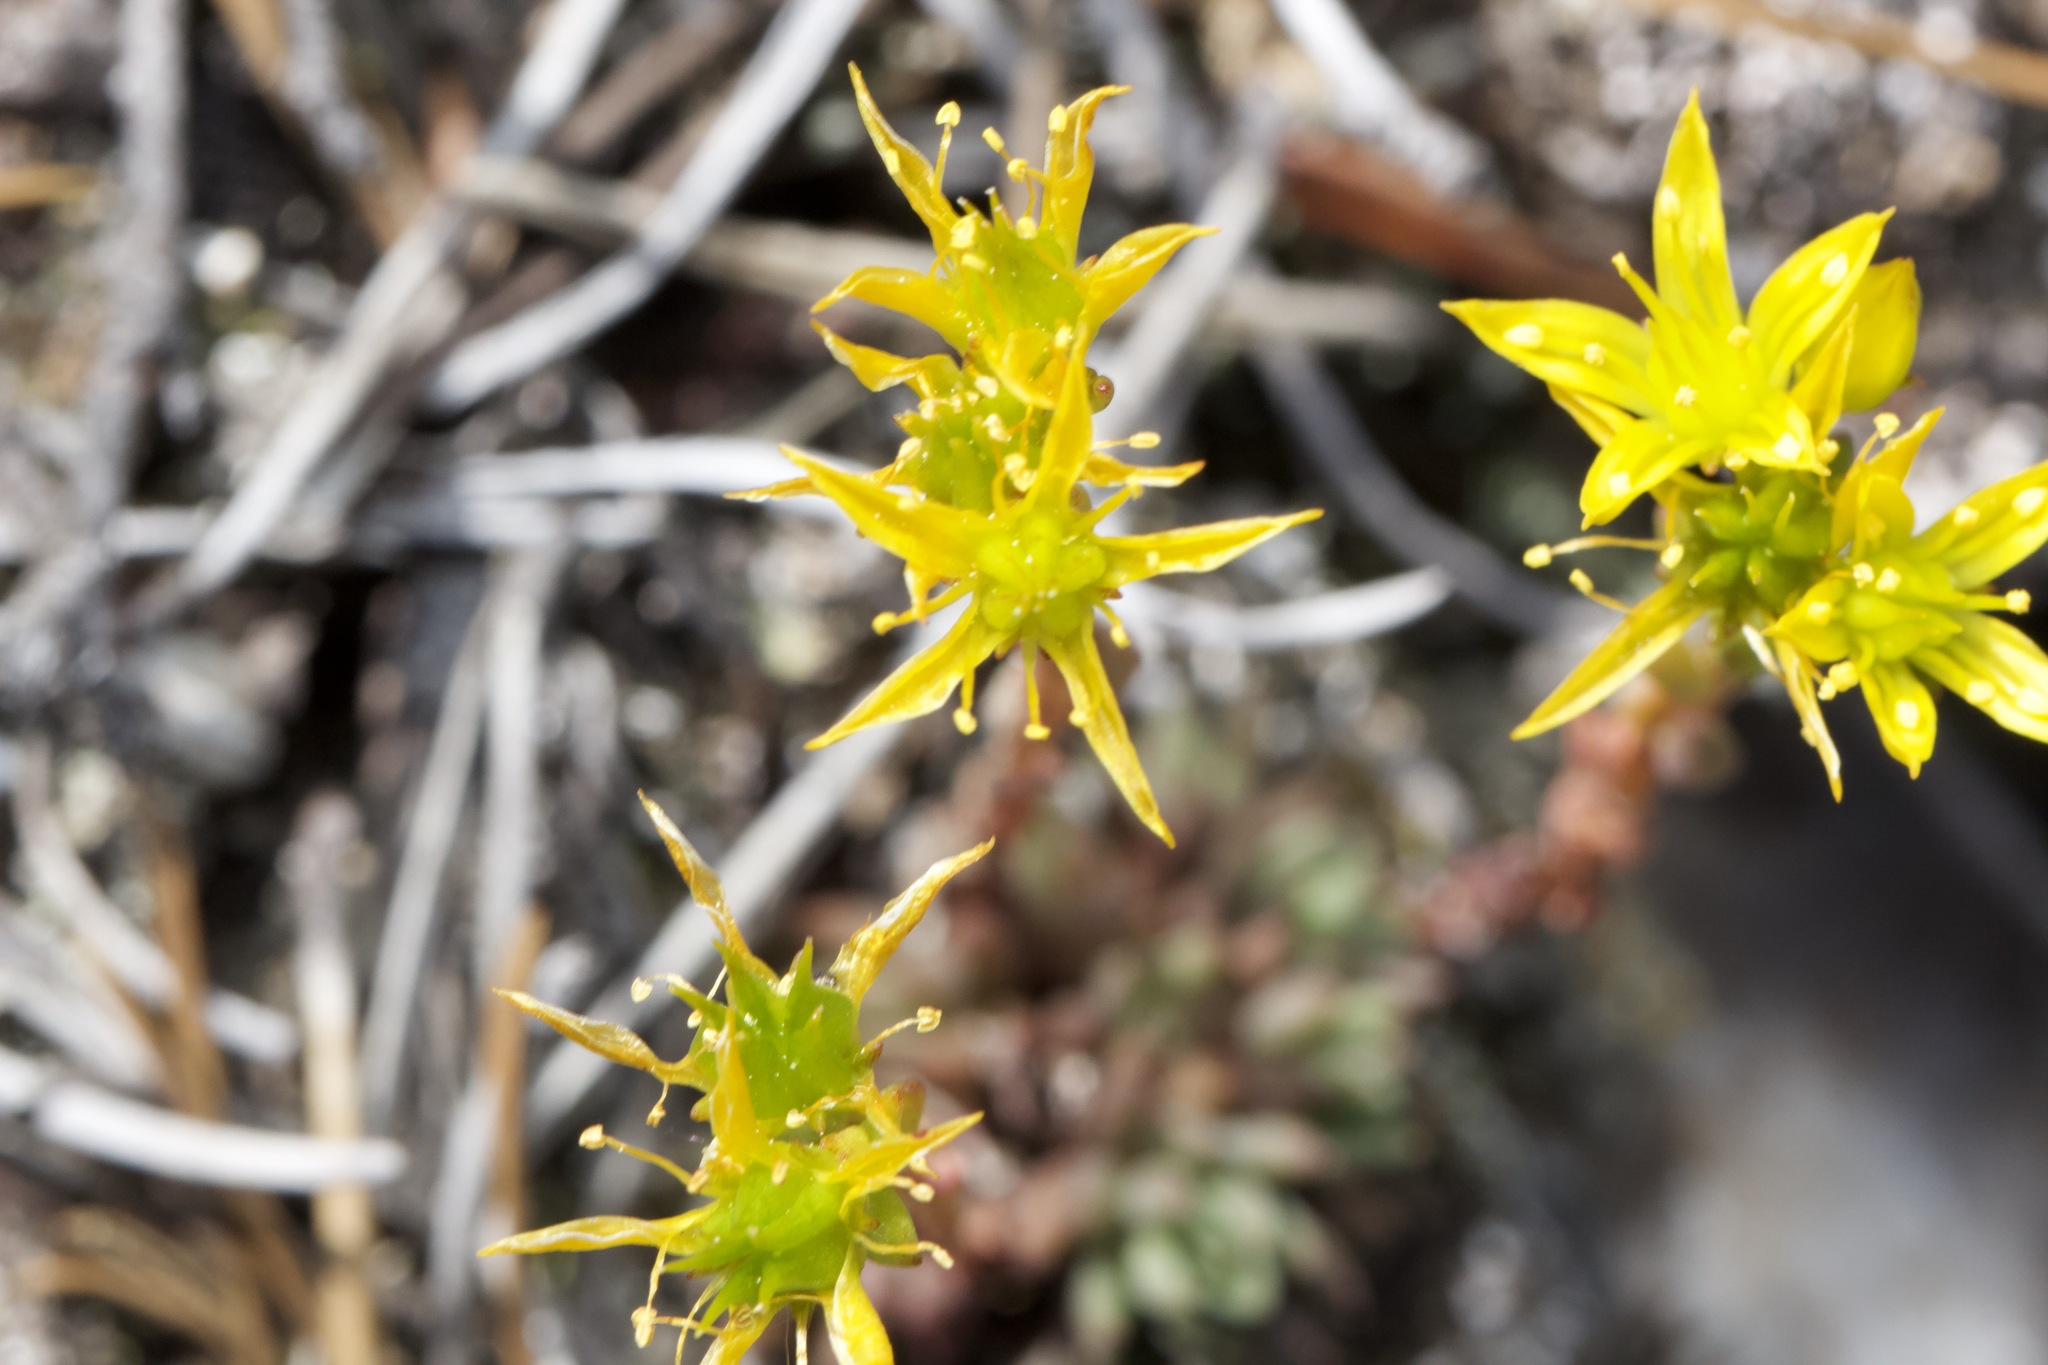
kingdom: Plantae
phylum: Tracheophyta
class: Magnoliopsida
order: Saxifragales
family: Crassulaceae
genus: Sedum
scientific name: Sedum lanceolatum
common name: Common stonecrop
